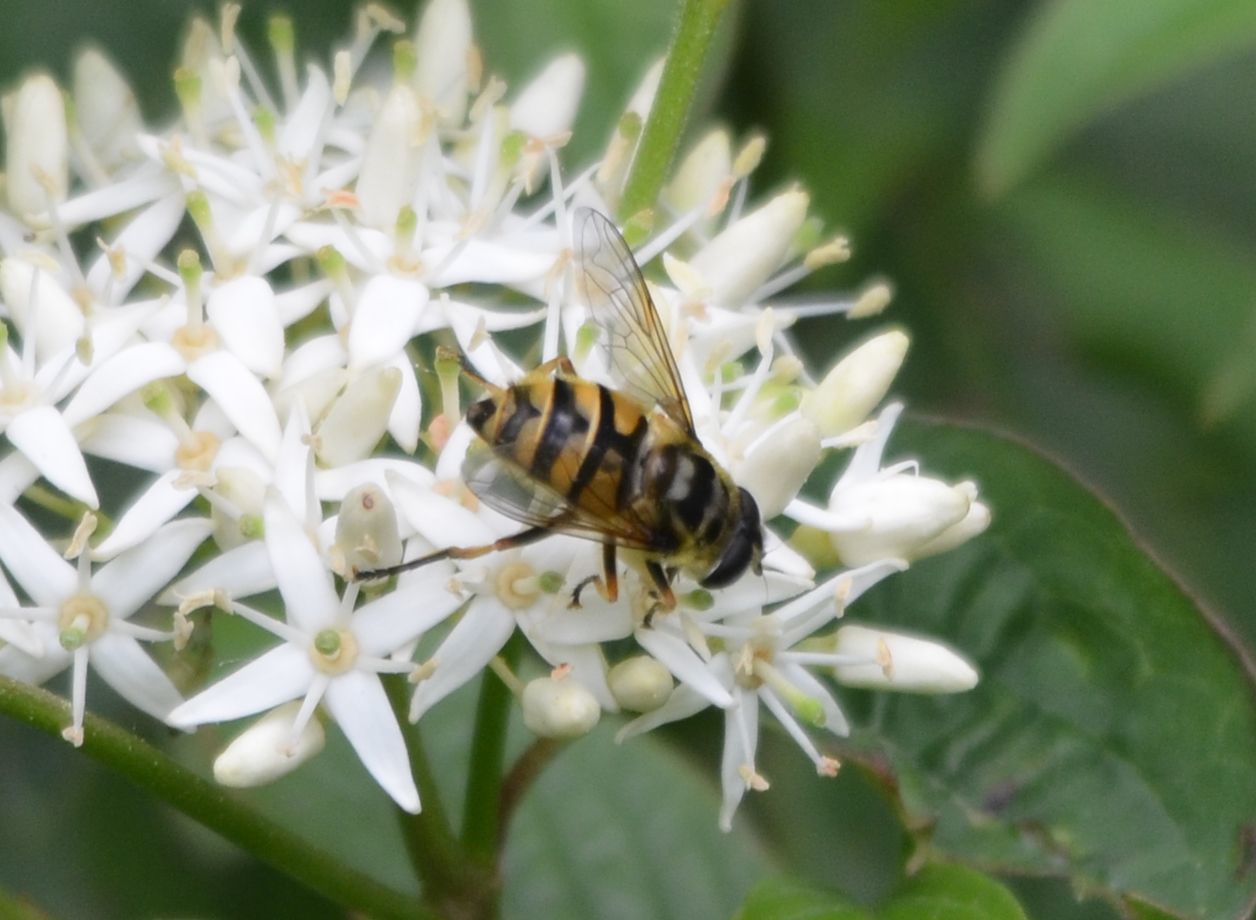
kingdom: Animalia
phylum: Arthropoda
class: Insecta
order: Diptera
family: Syrphidae
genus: Myathropa
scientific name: Myathropa florea
